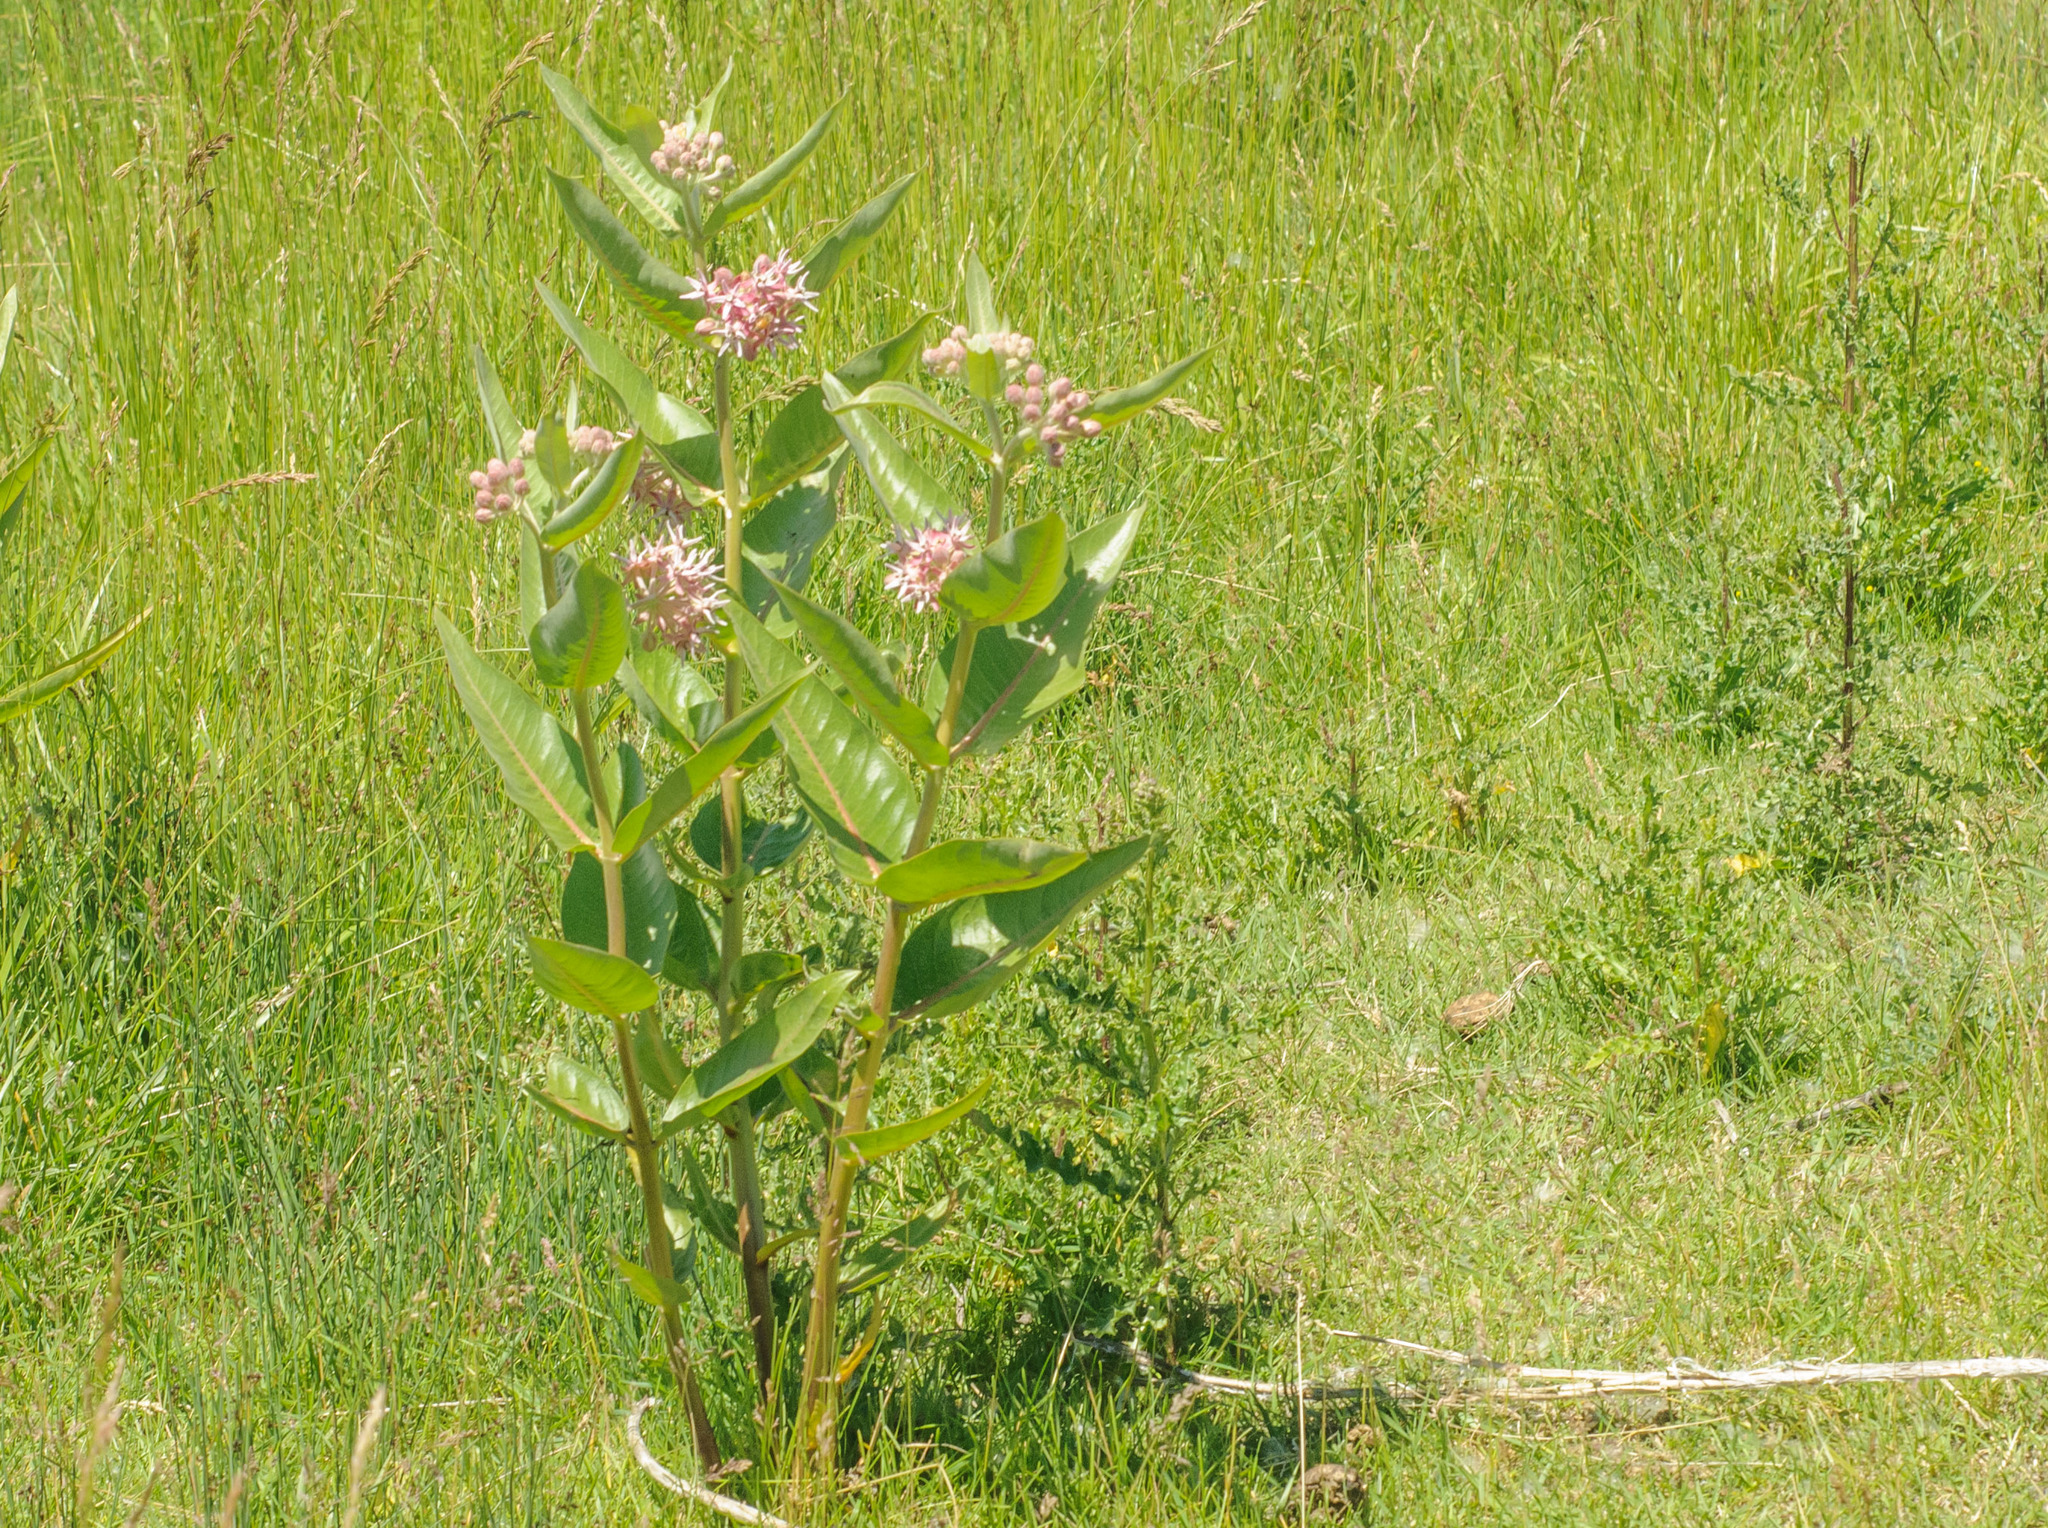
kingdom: Plantae
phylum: Tracheophyta
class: Magnoliopsida
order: Gentianales
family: Apocynaceae
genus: Asclepias
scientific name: Asclepias speciosa
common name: Showy milkweed
